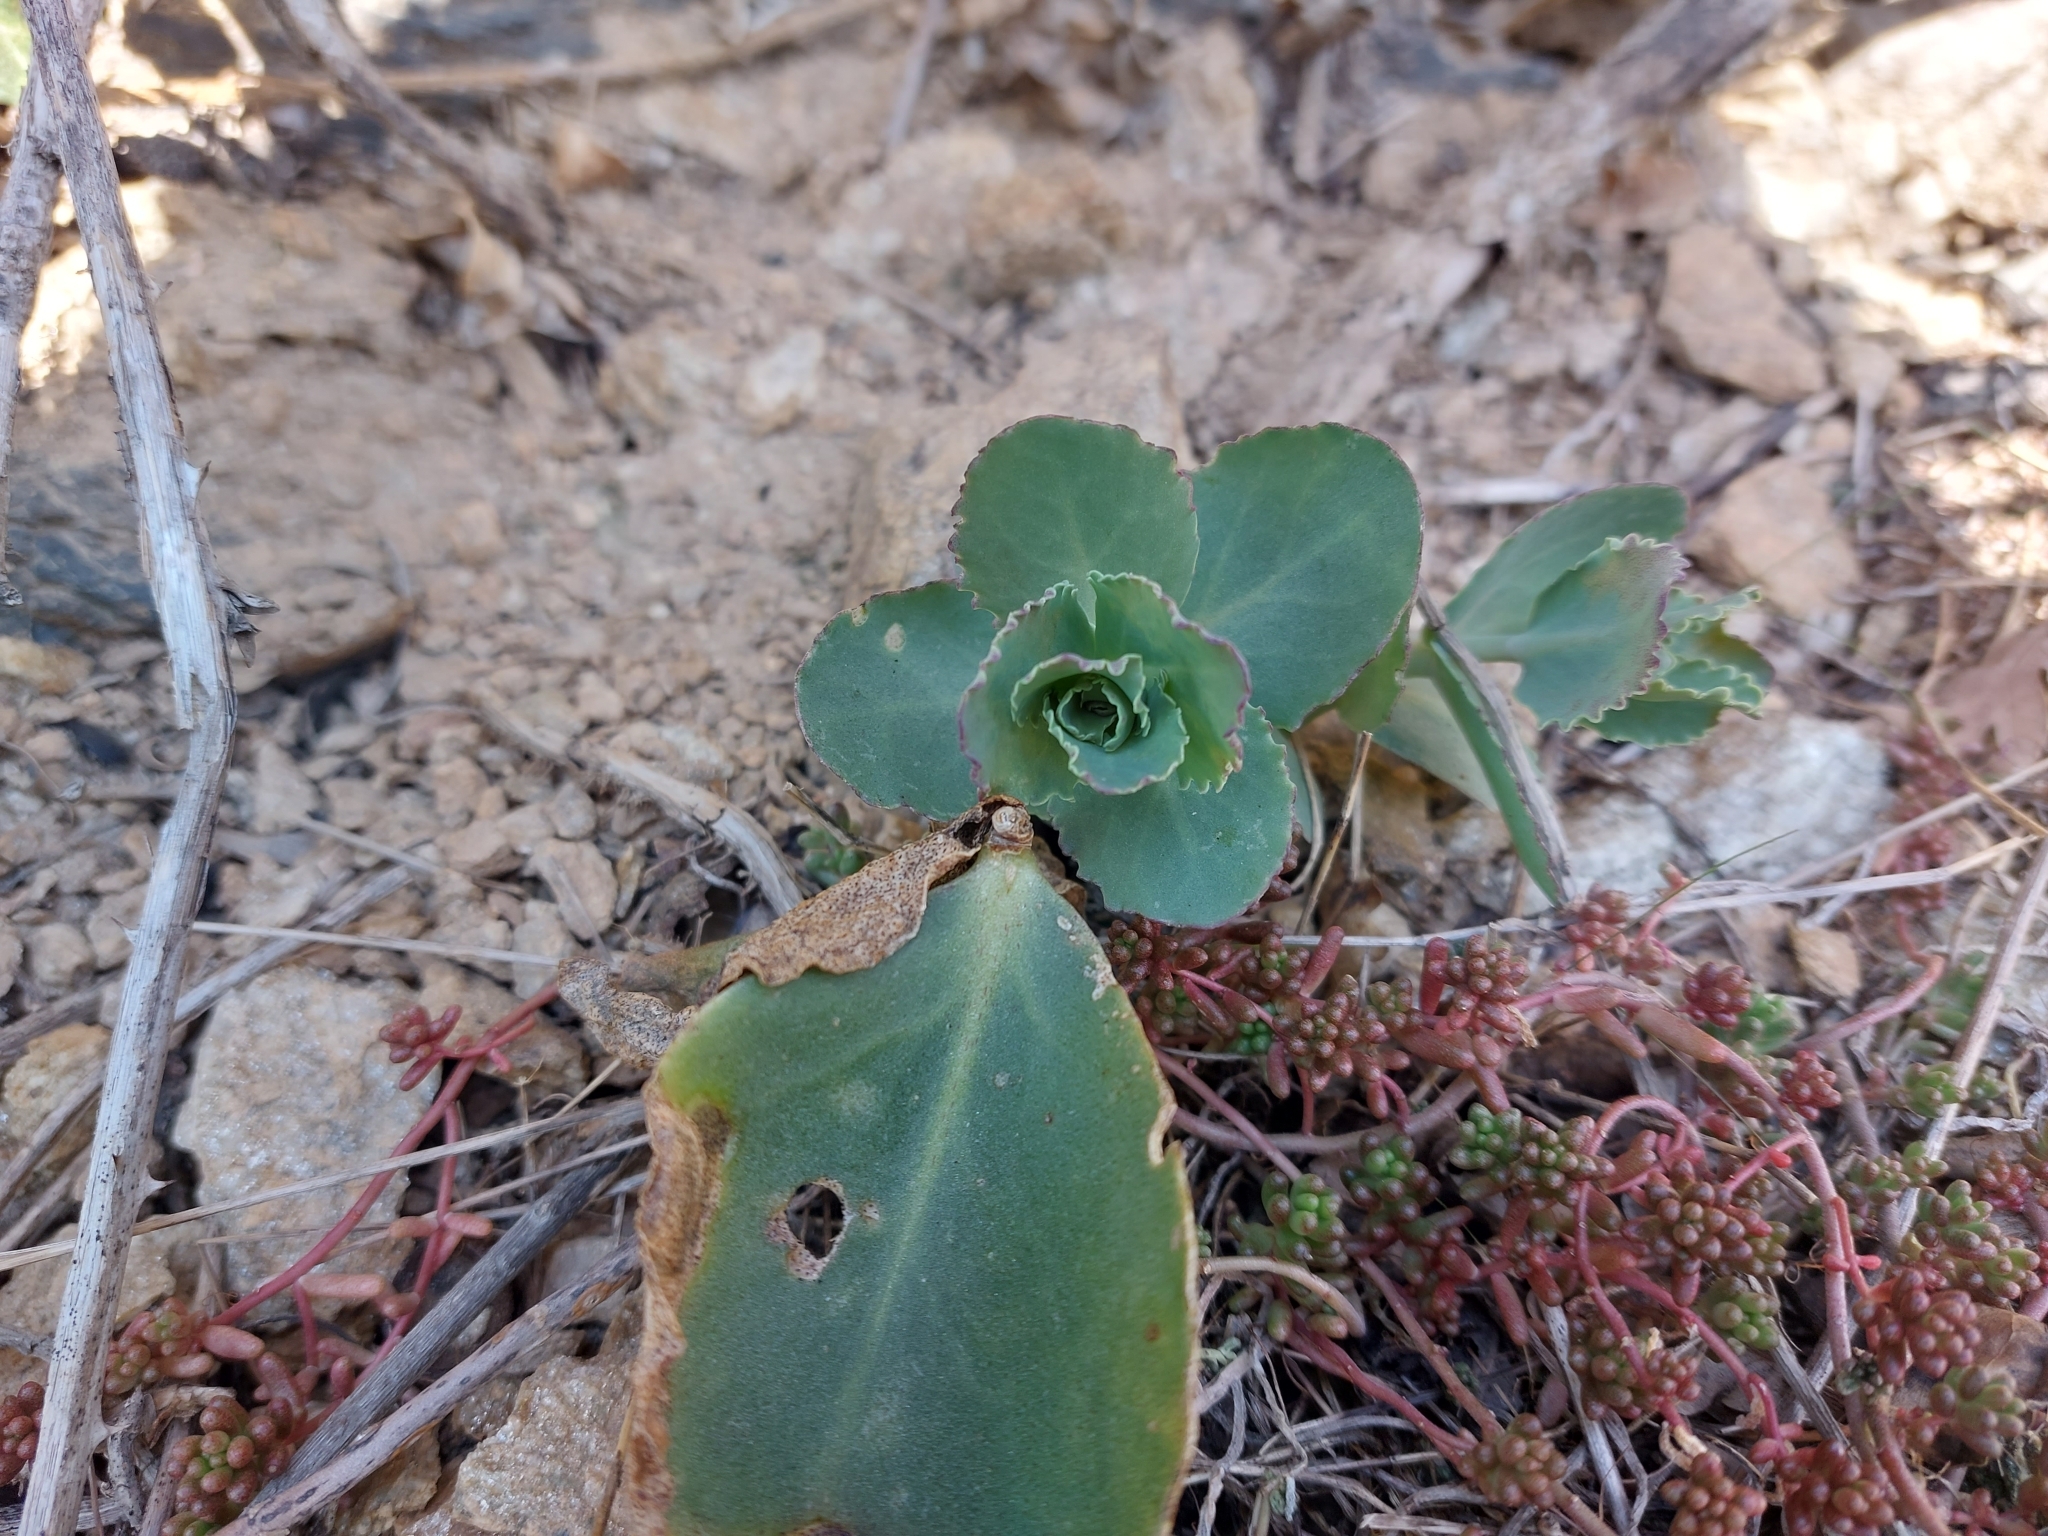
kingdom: Plantae
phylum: Tracheophyta
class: Magnoliopsida
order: Saxifragales
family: Crassulaceae
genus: Hylotelephium
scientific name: Hylotelephium maximum
